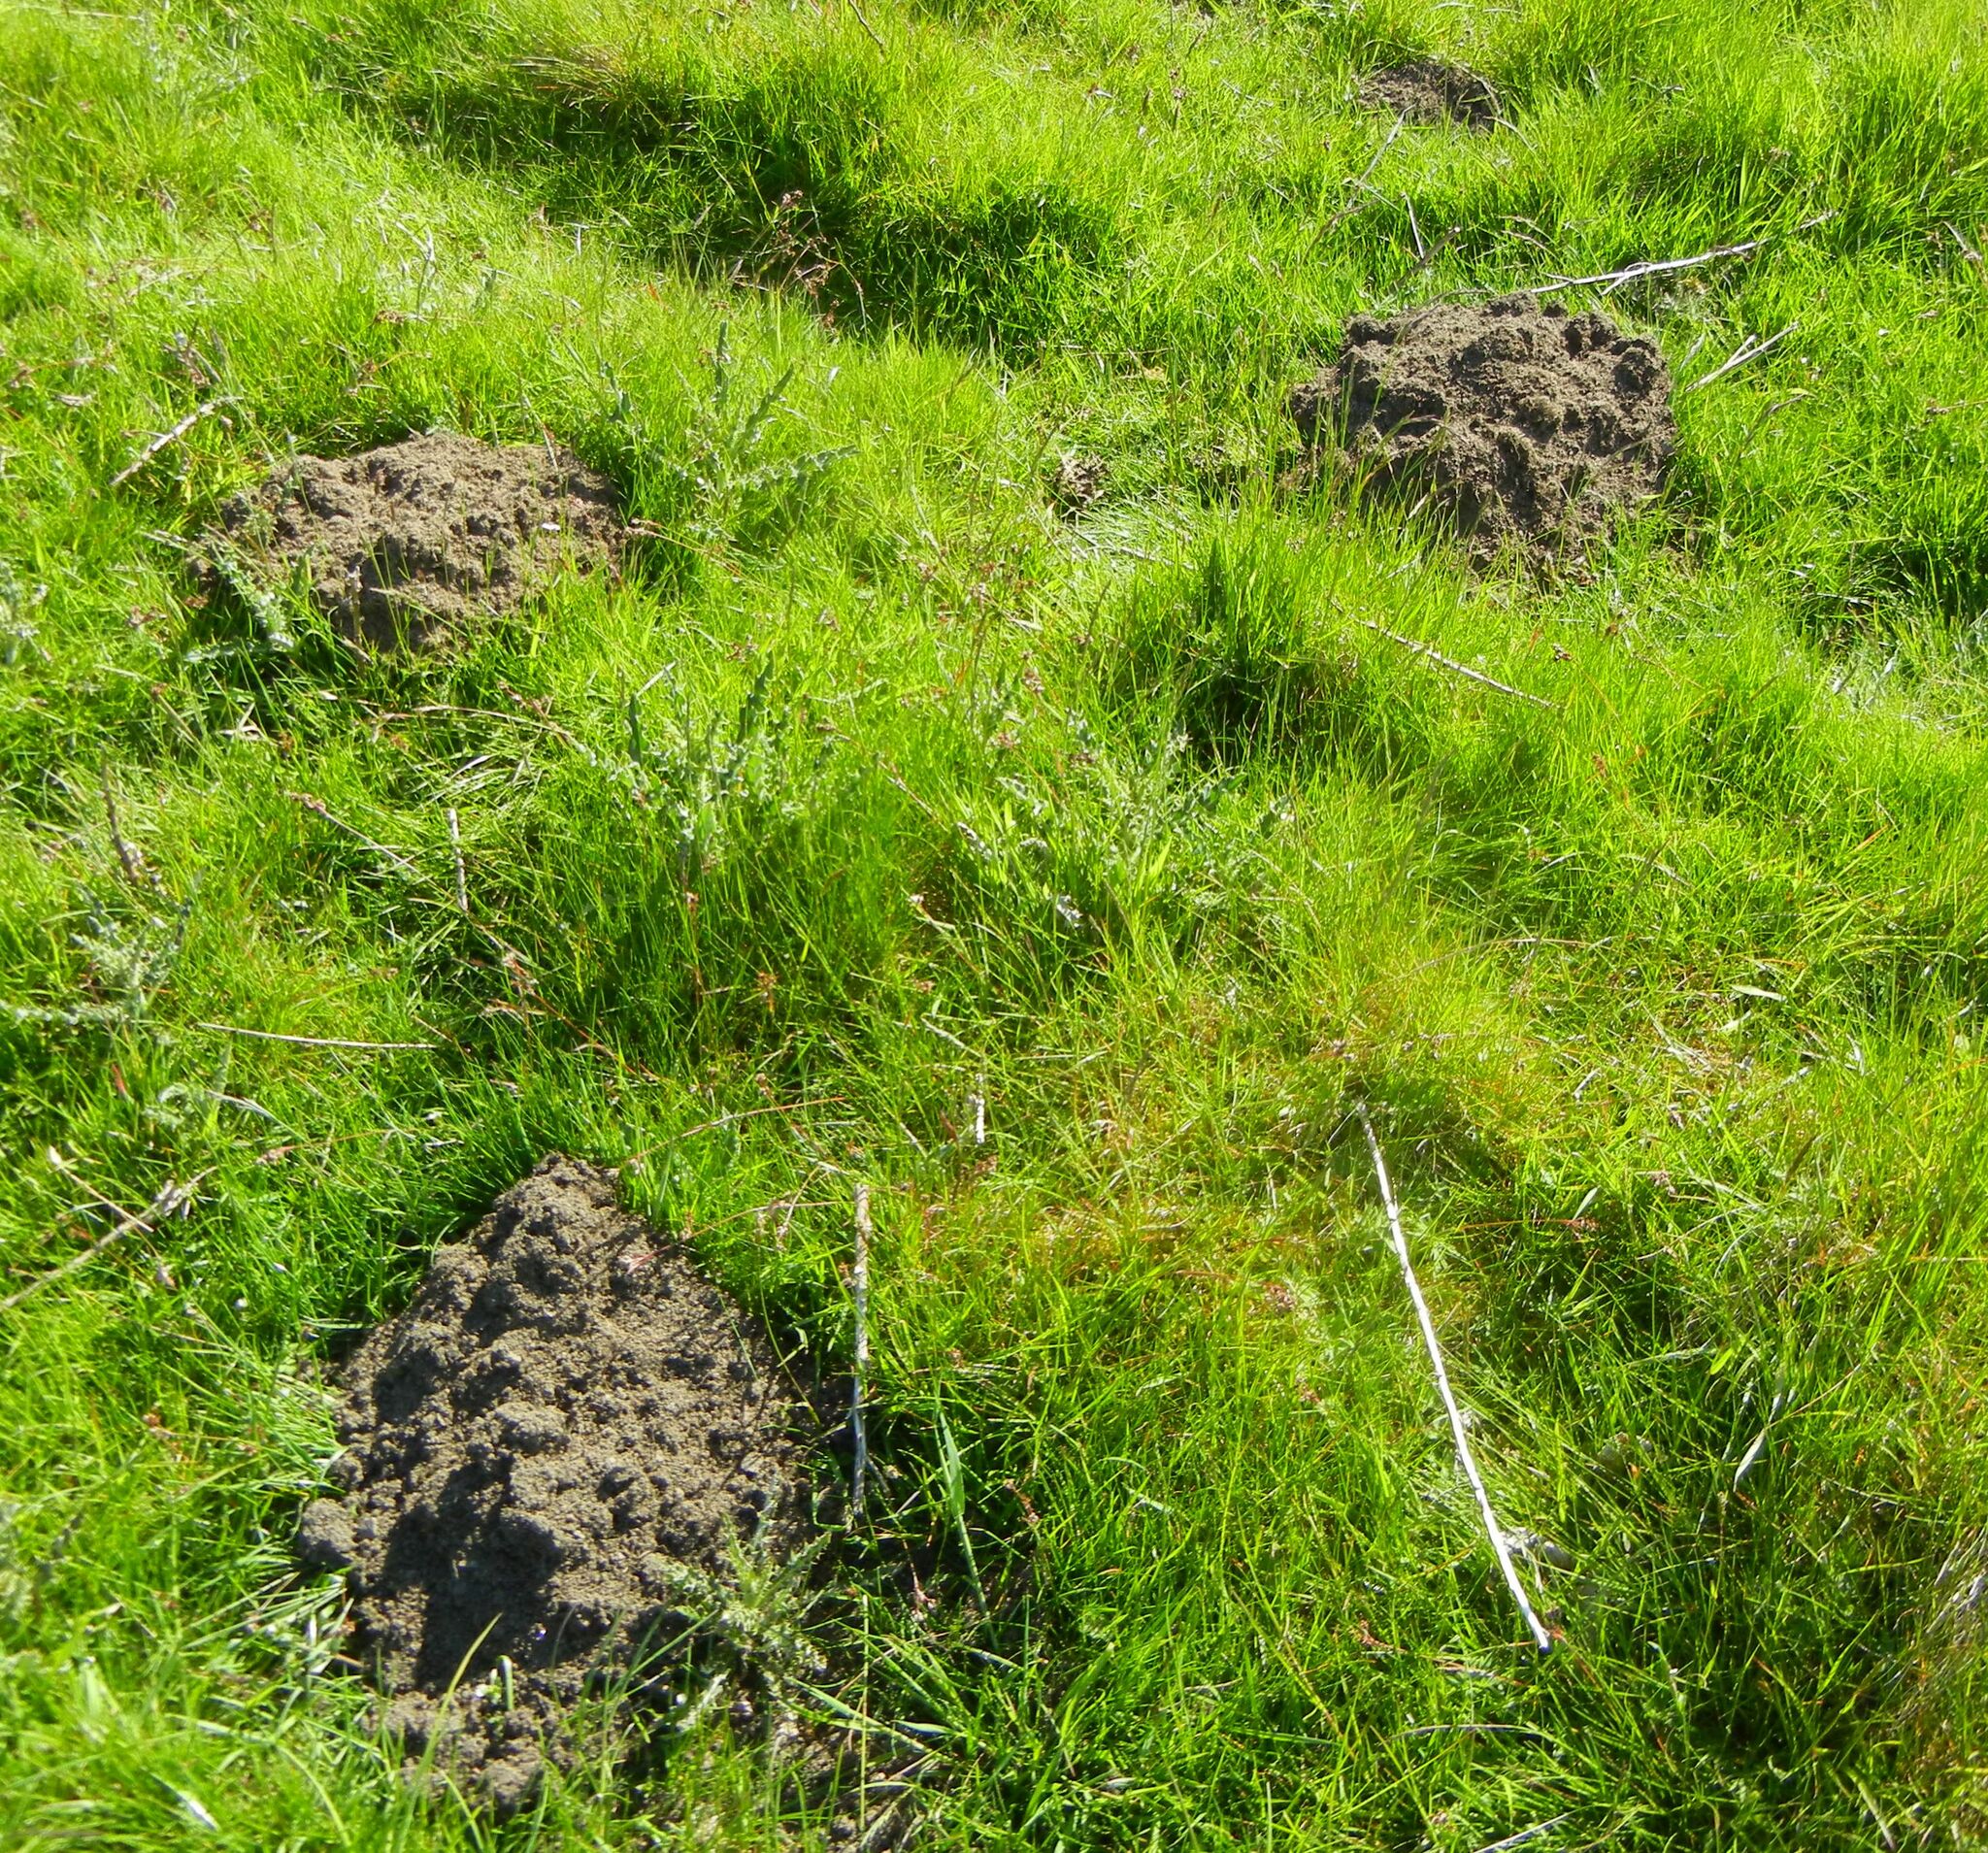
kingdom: Animalia
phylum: Chordata
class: Mammalia
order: Soricomorpha
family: Talpidae
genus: Talpa
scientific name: Talpa europaea
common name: European mole
